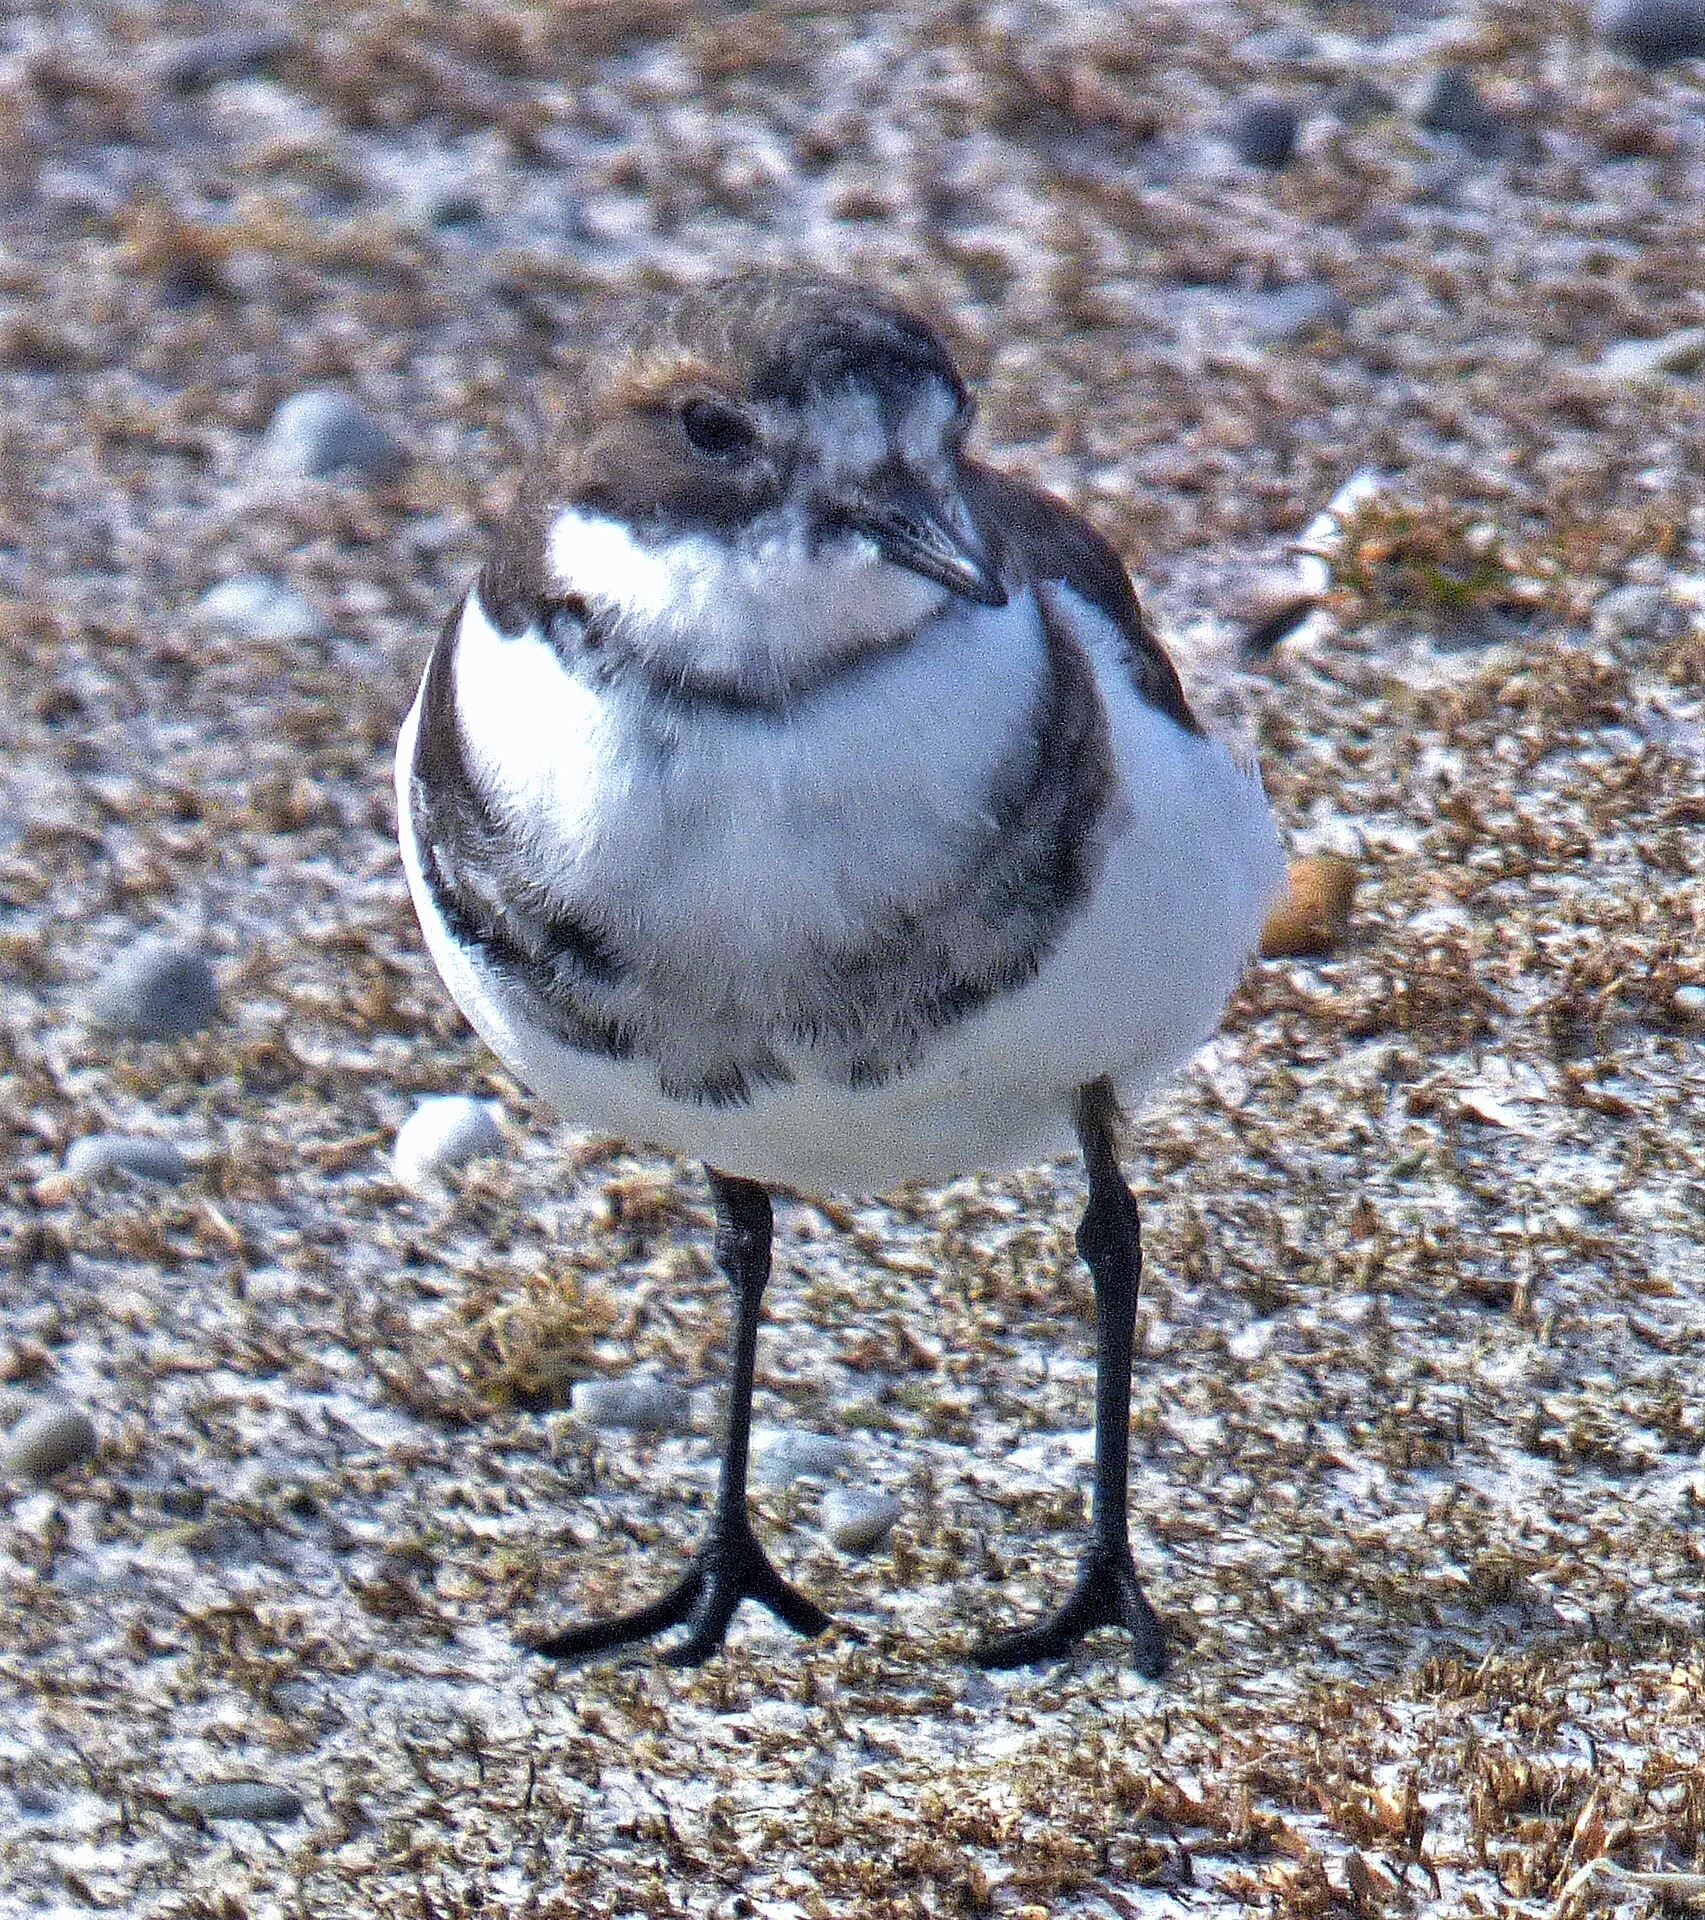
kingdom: Animalia
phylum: Chordata
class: Aves
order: Charadriiformes
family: Charadriidae
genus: Anarhynchus
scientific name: Anarhynchus
